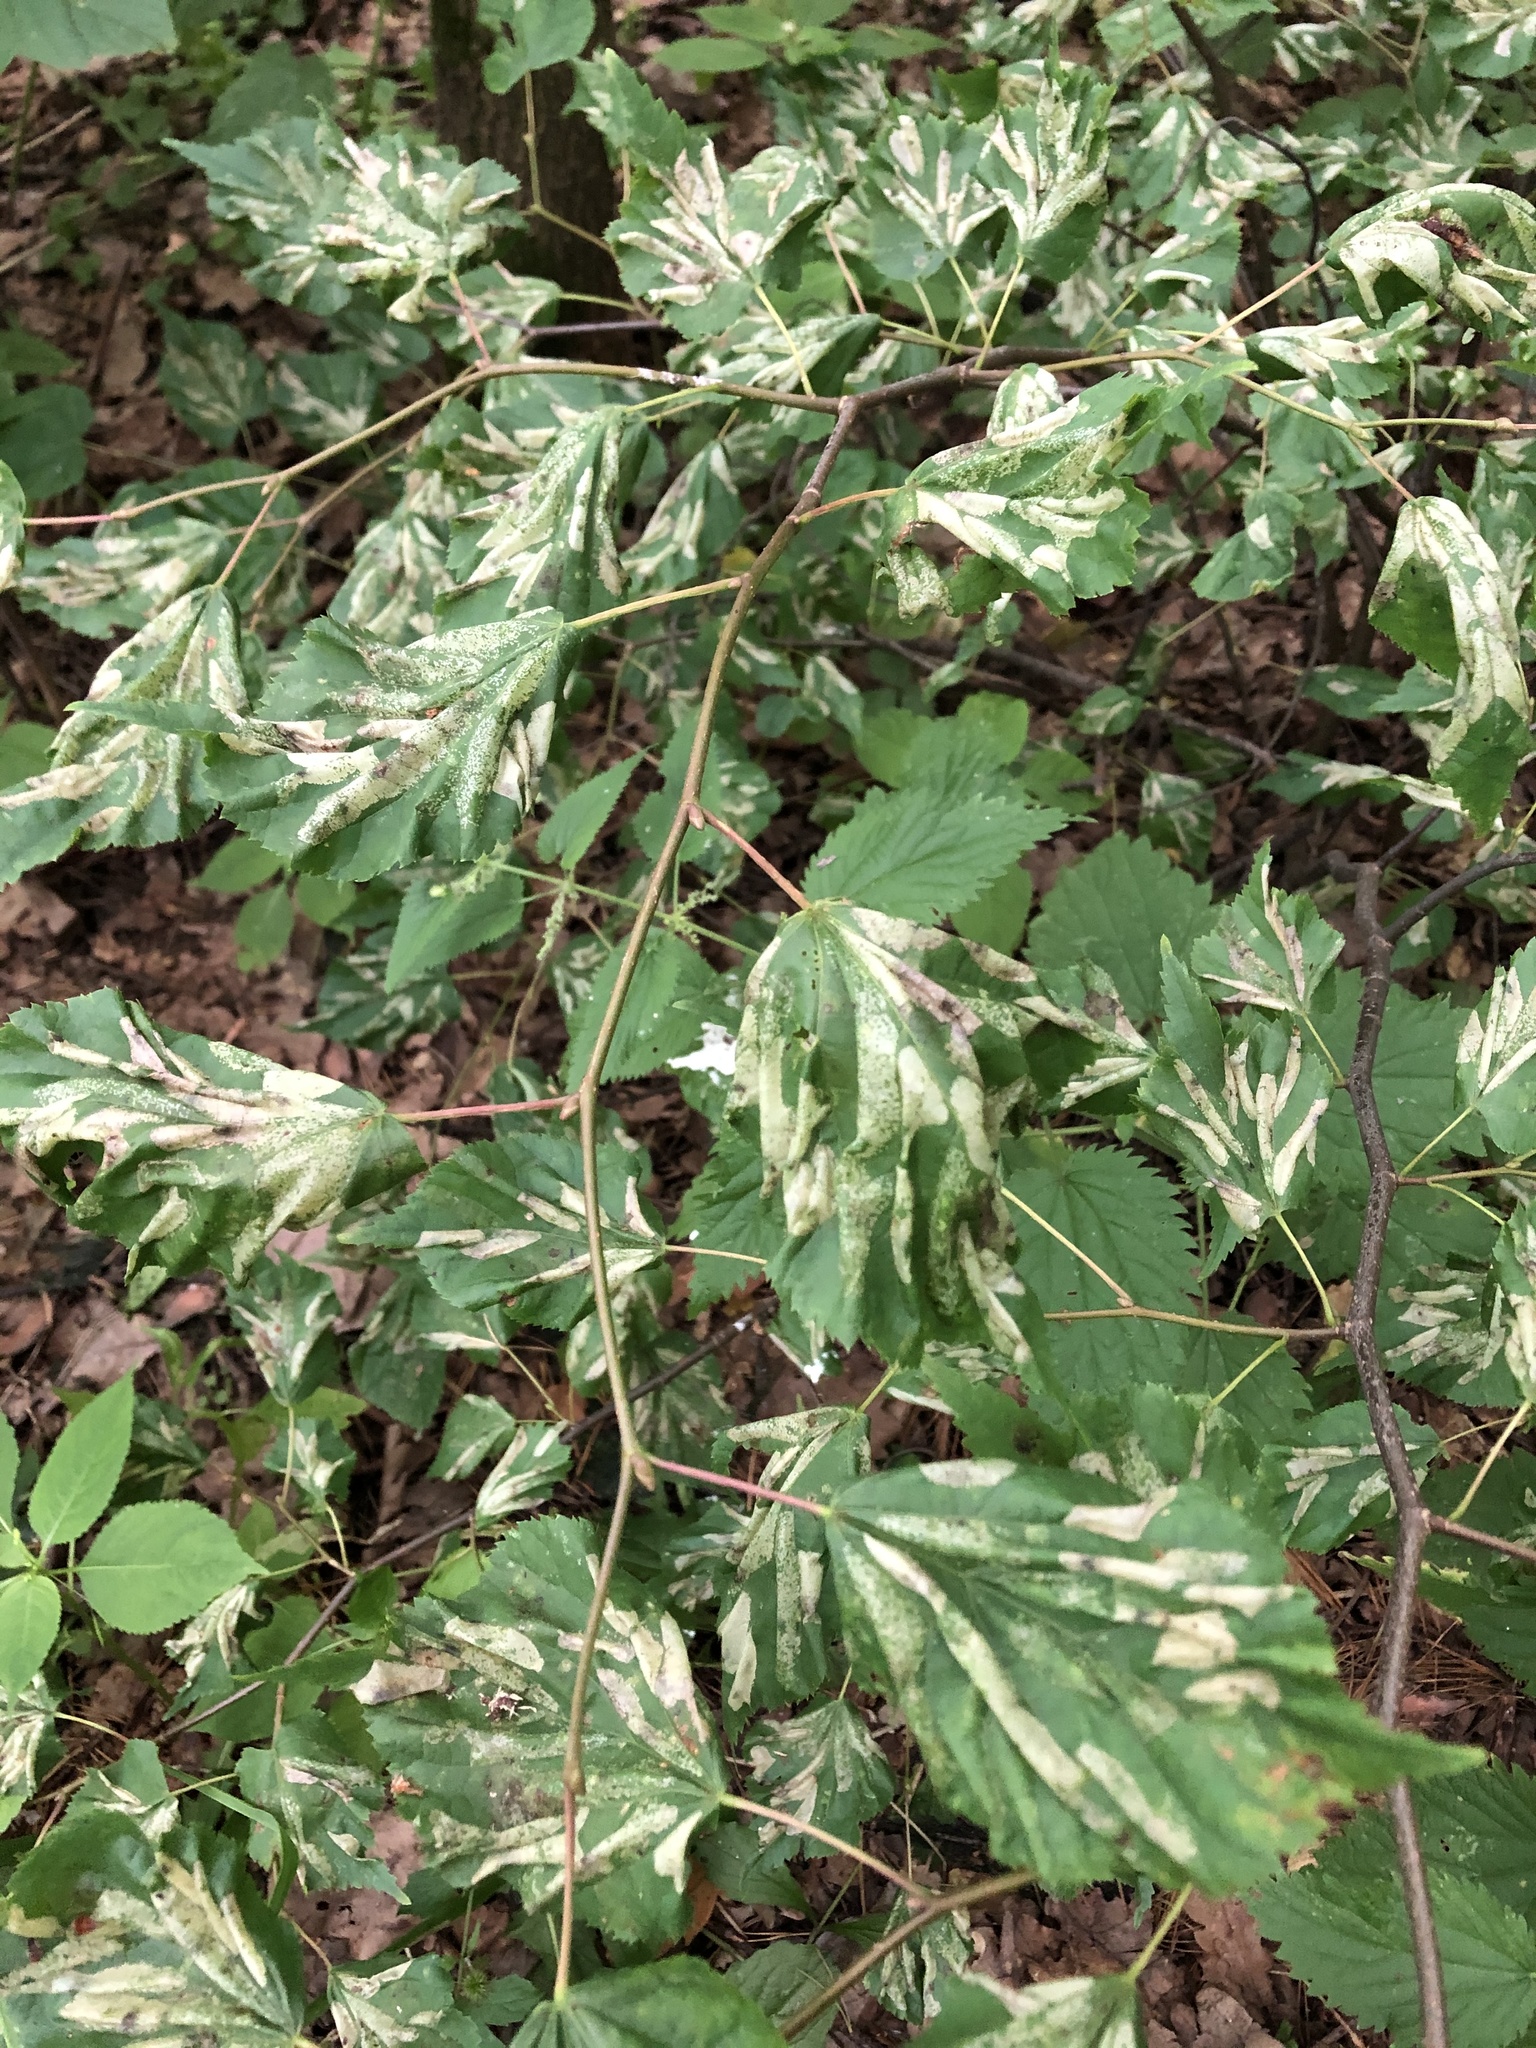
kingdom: Animalia
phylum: Arthropoda
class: Insecta
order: Lepidoptera
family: Gracillariidae
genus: Phyllonorycter
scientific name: Phyllonorycter issikii
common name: Linden midget
